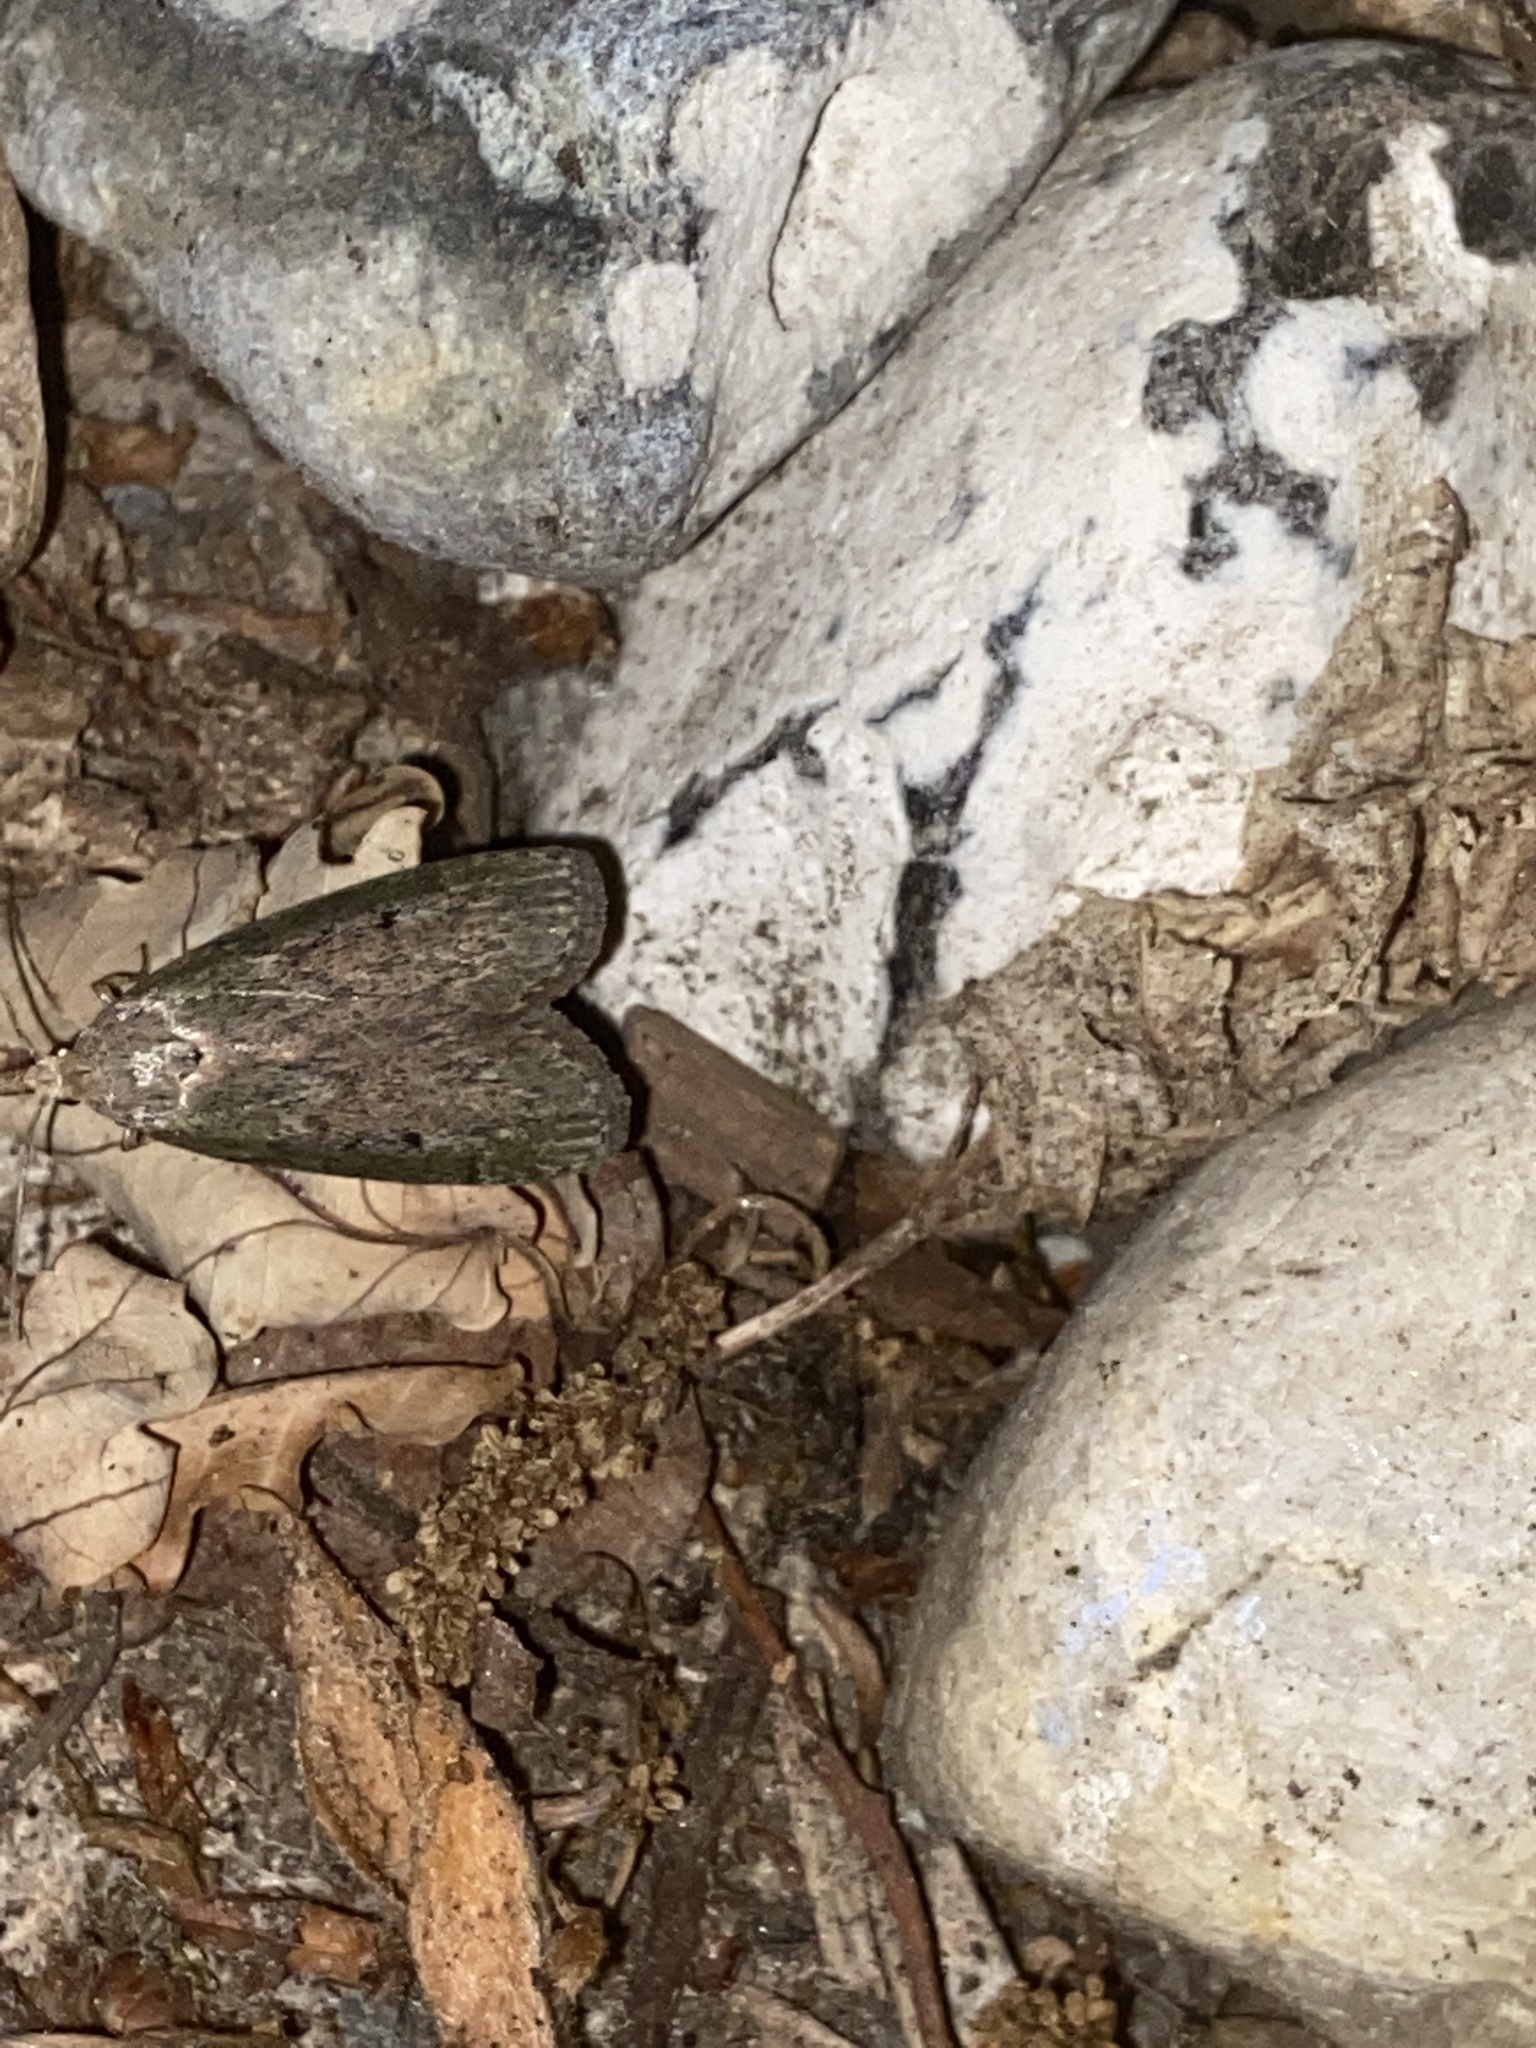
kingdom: Animalia
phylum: Arthropoda
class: Insecta
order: Lepidoptera
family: Pyralidae
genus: Aphomia
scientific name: Aphomia sociella
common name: Bee moth
